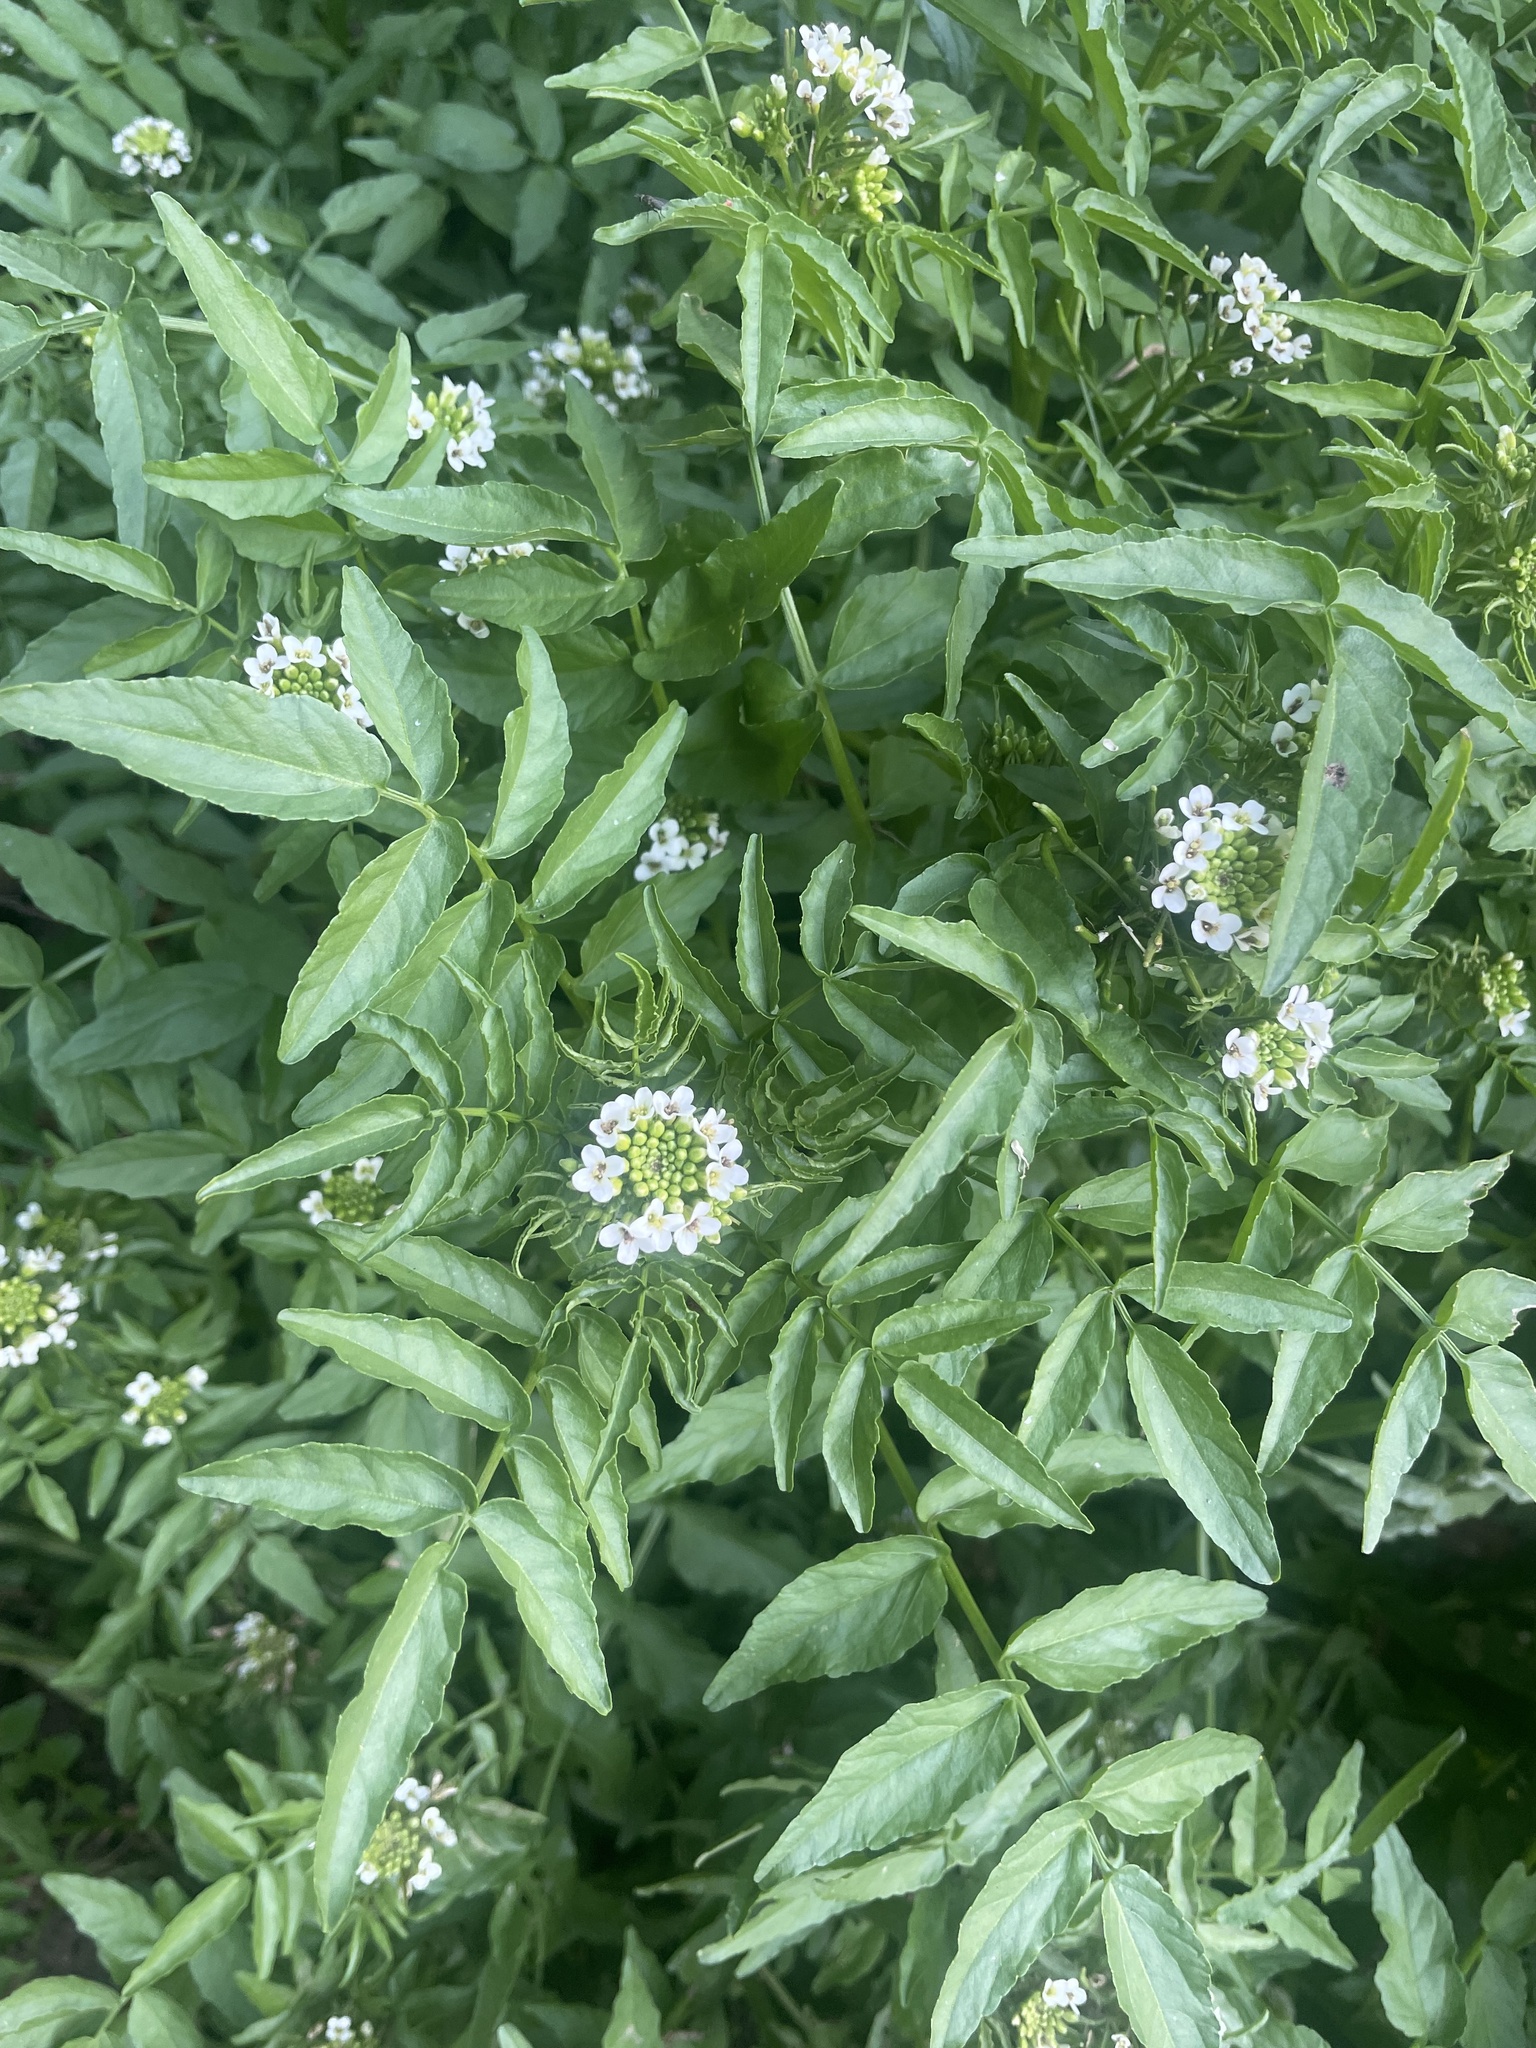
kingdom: Plantae
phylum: Tracheophyta
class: Magnoliopsida
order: Brassicales
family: Brassicaceae
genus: Nasturtium
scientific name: Nasturtium officinale
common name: Watercress
